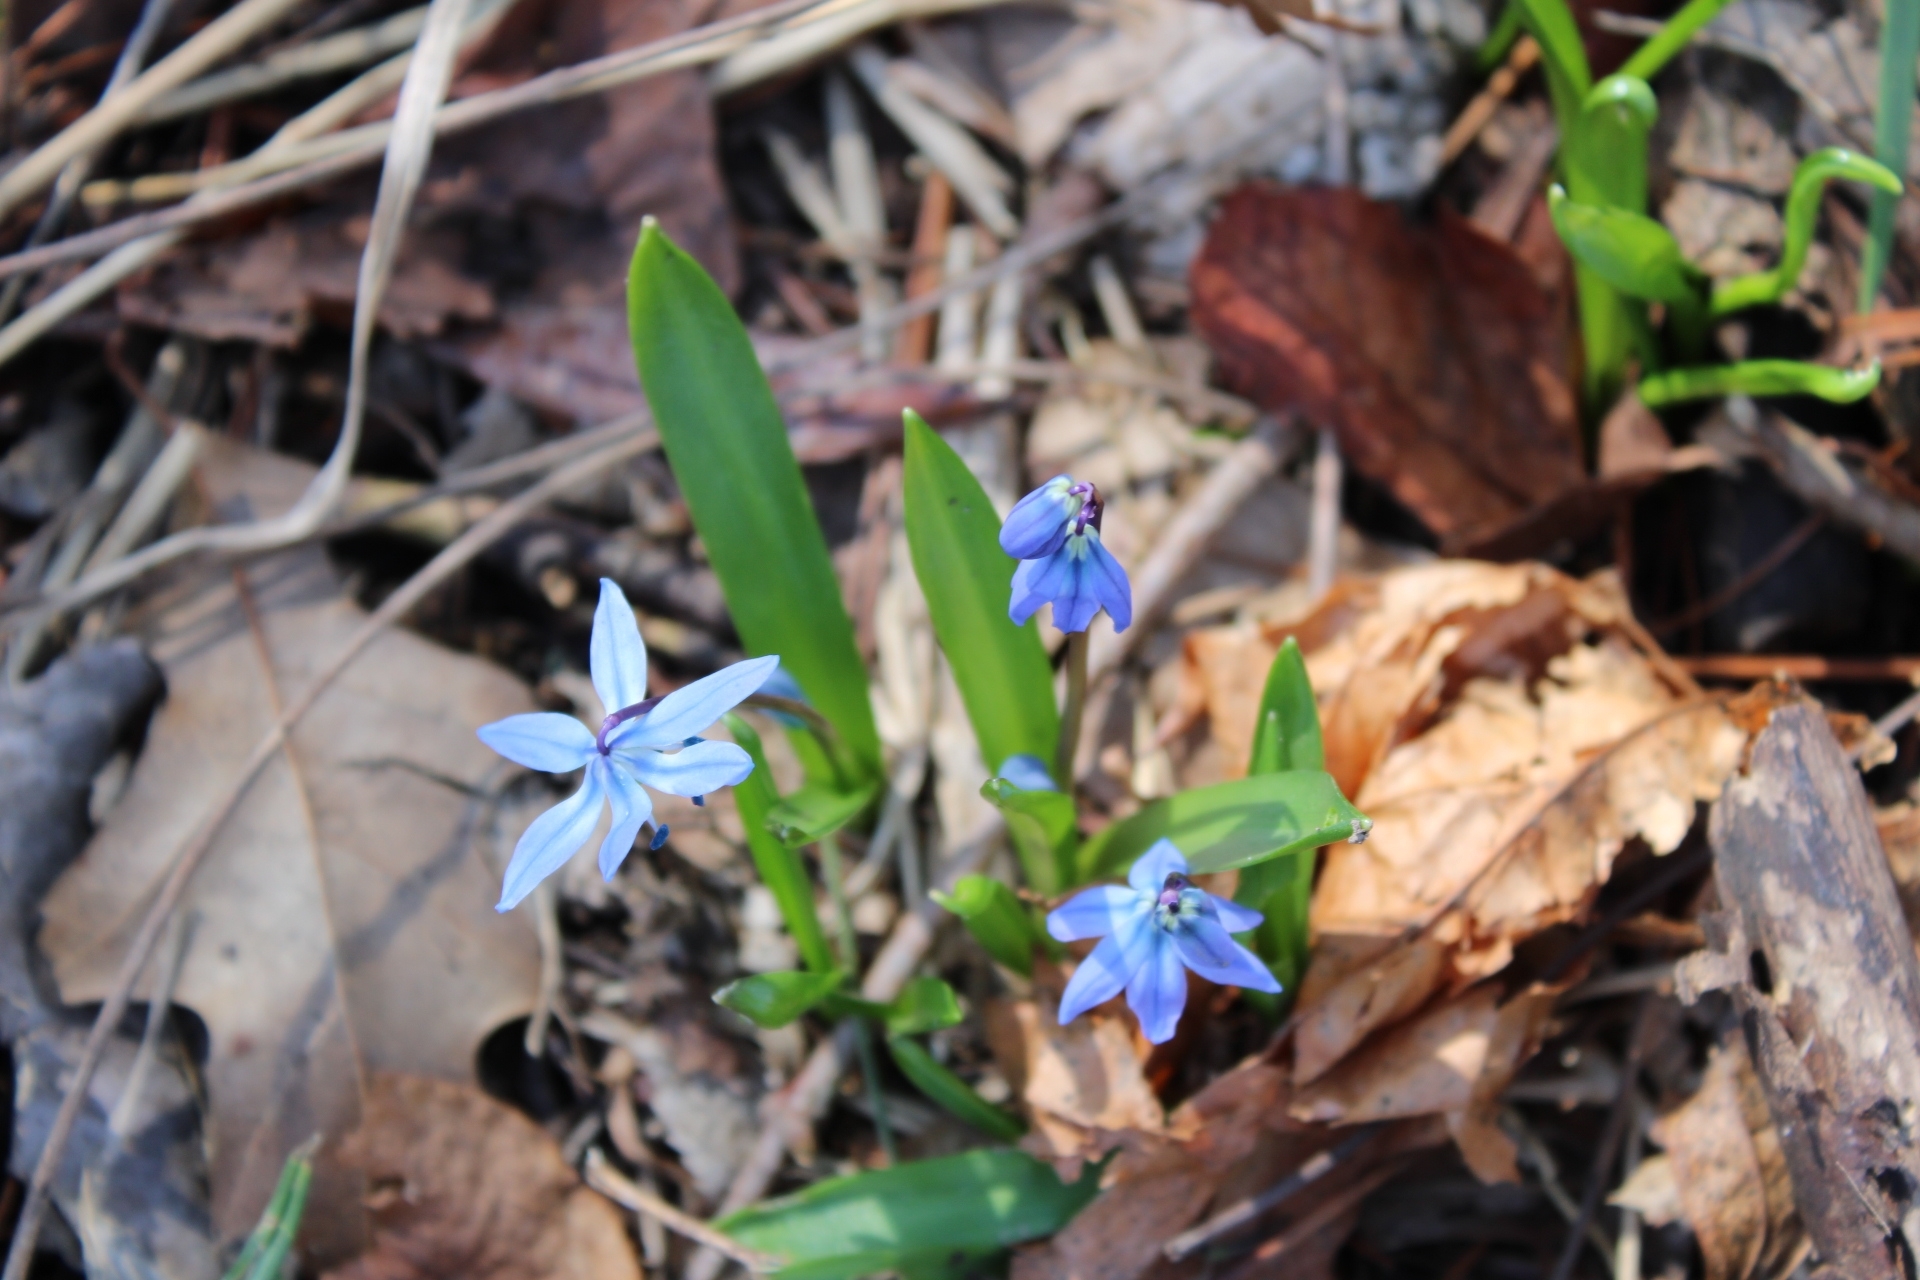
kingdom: Plantae
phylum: Tracheophyta
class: Liliopsida
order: Asparagales
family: Asparagaceae
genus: Scilla
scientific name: Scilla siberica
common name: Siberian squill
